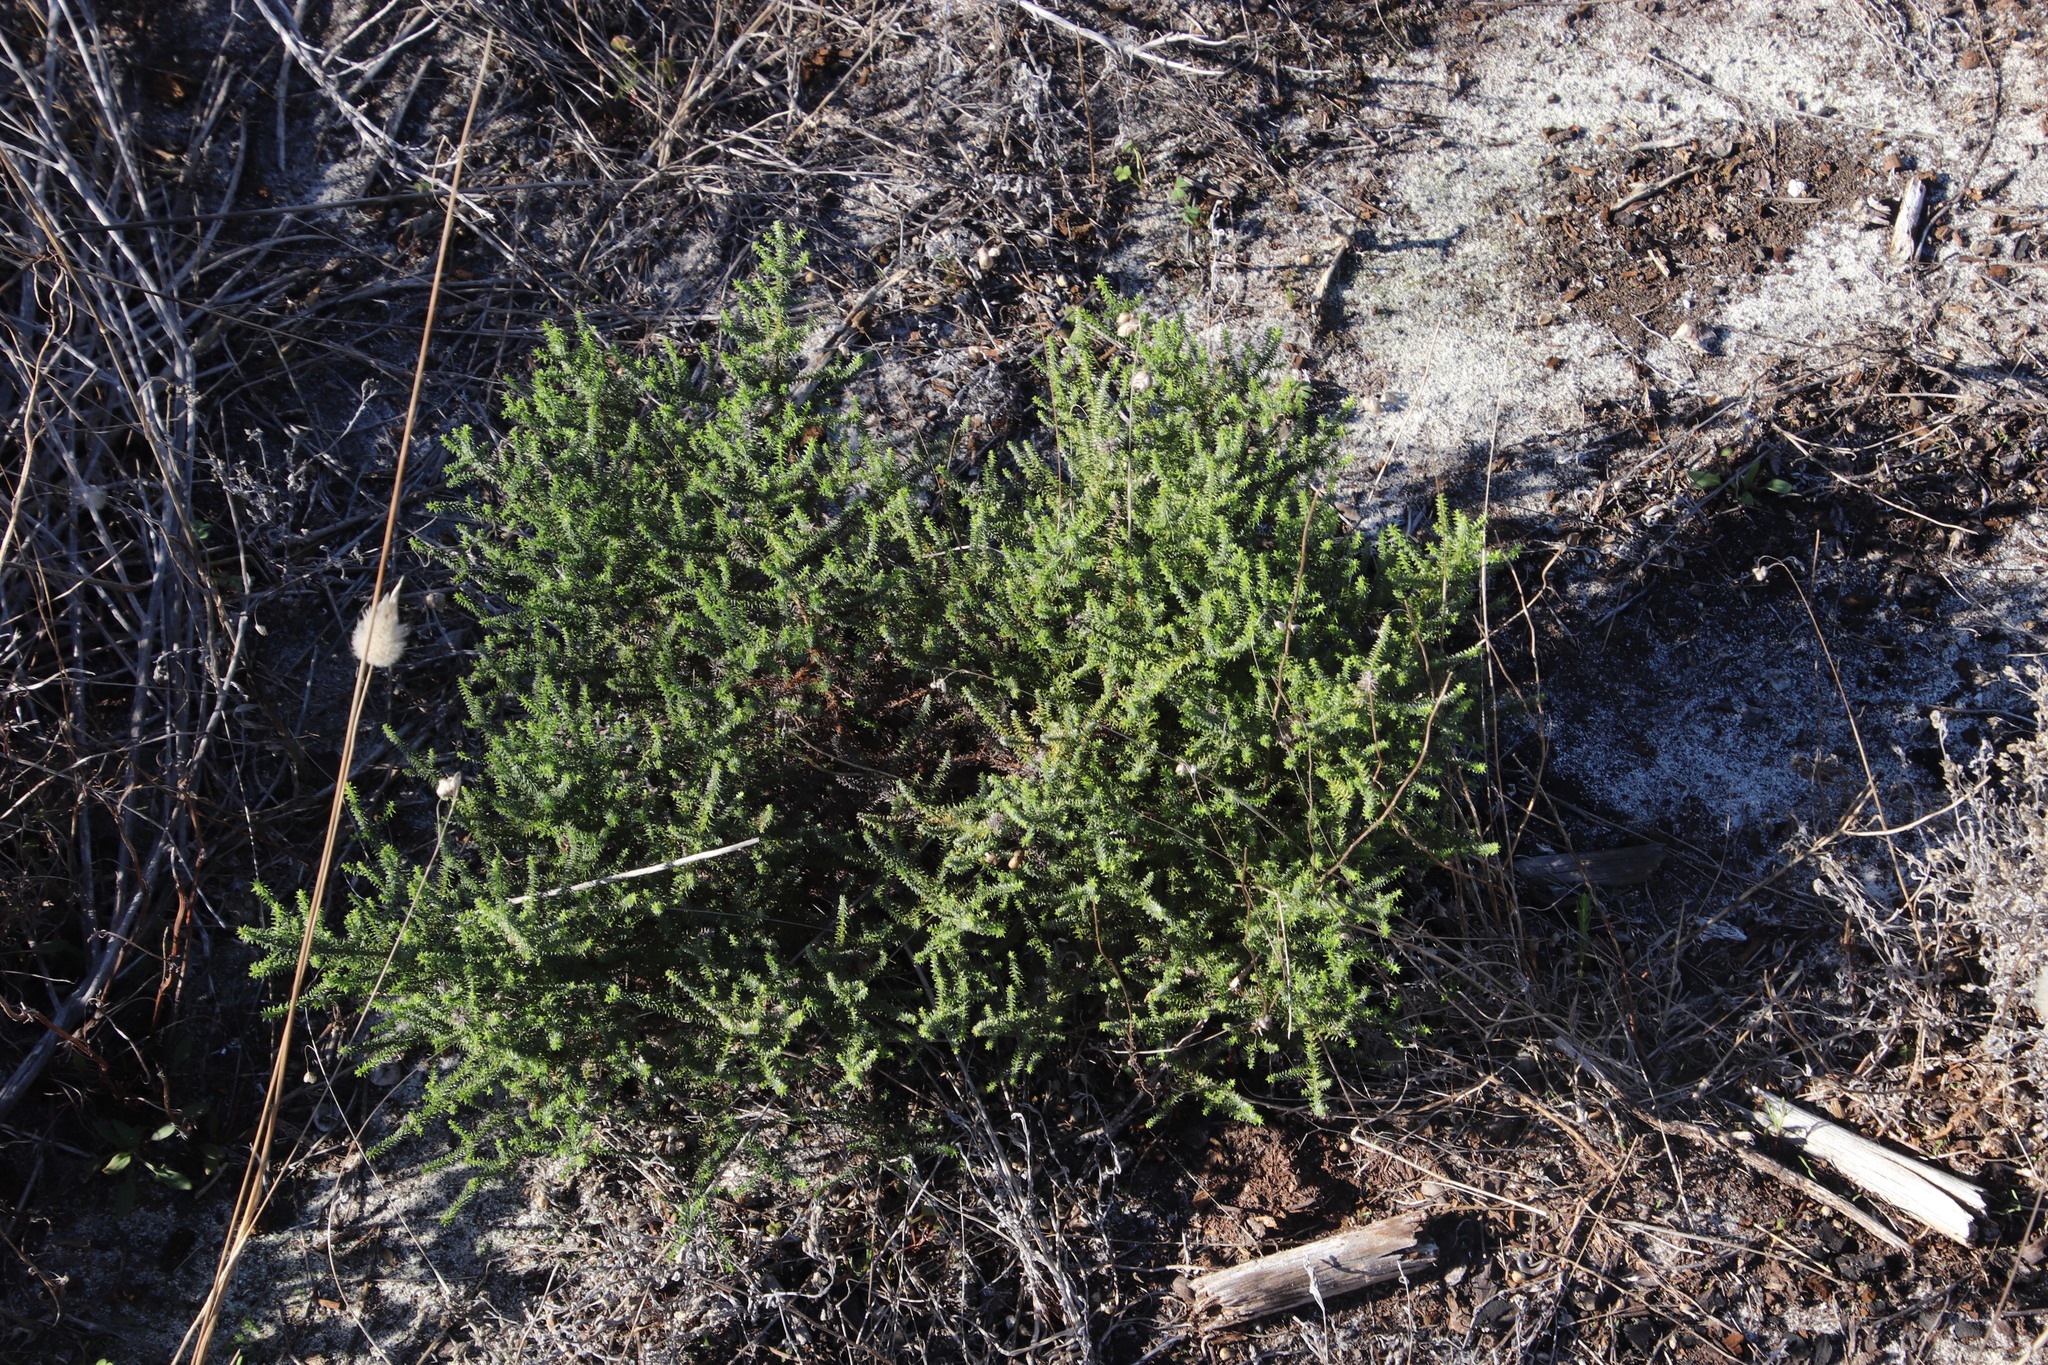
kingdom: Plantae
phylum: Tracheophyta
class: Magnoliopsida
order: Asterales
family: Asteraceae
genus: Seriphium
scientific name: Seriphium cinereum
